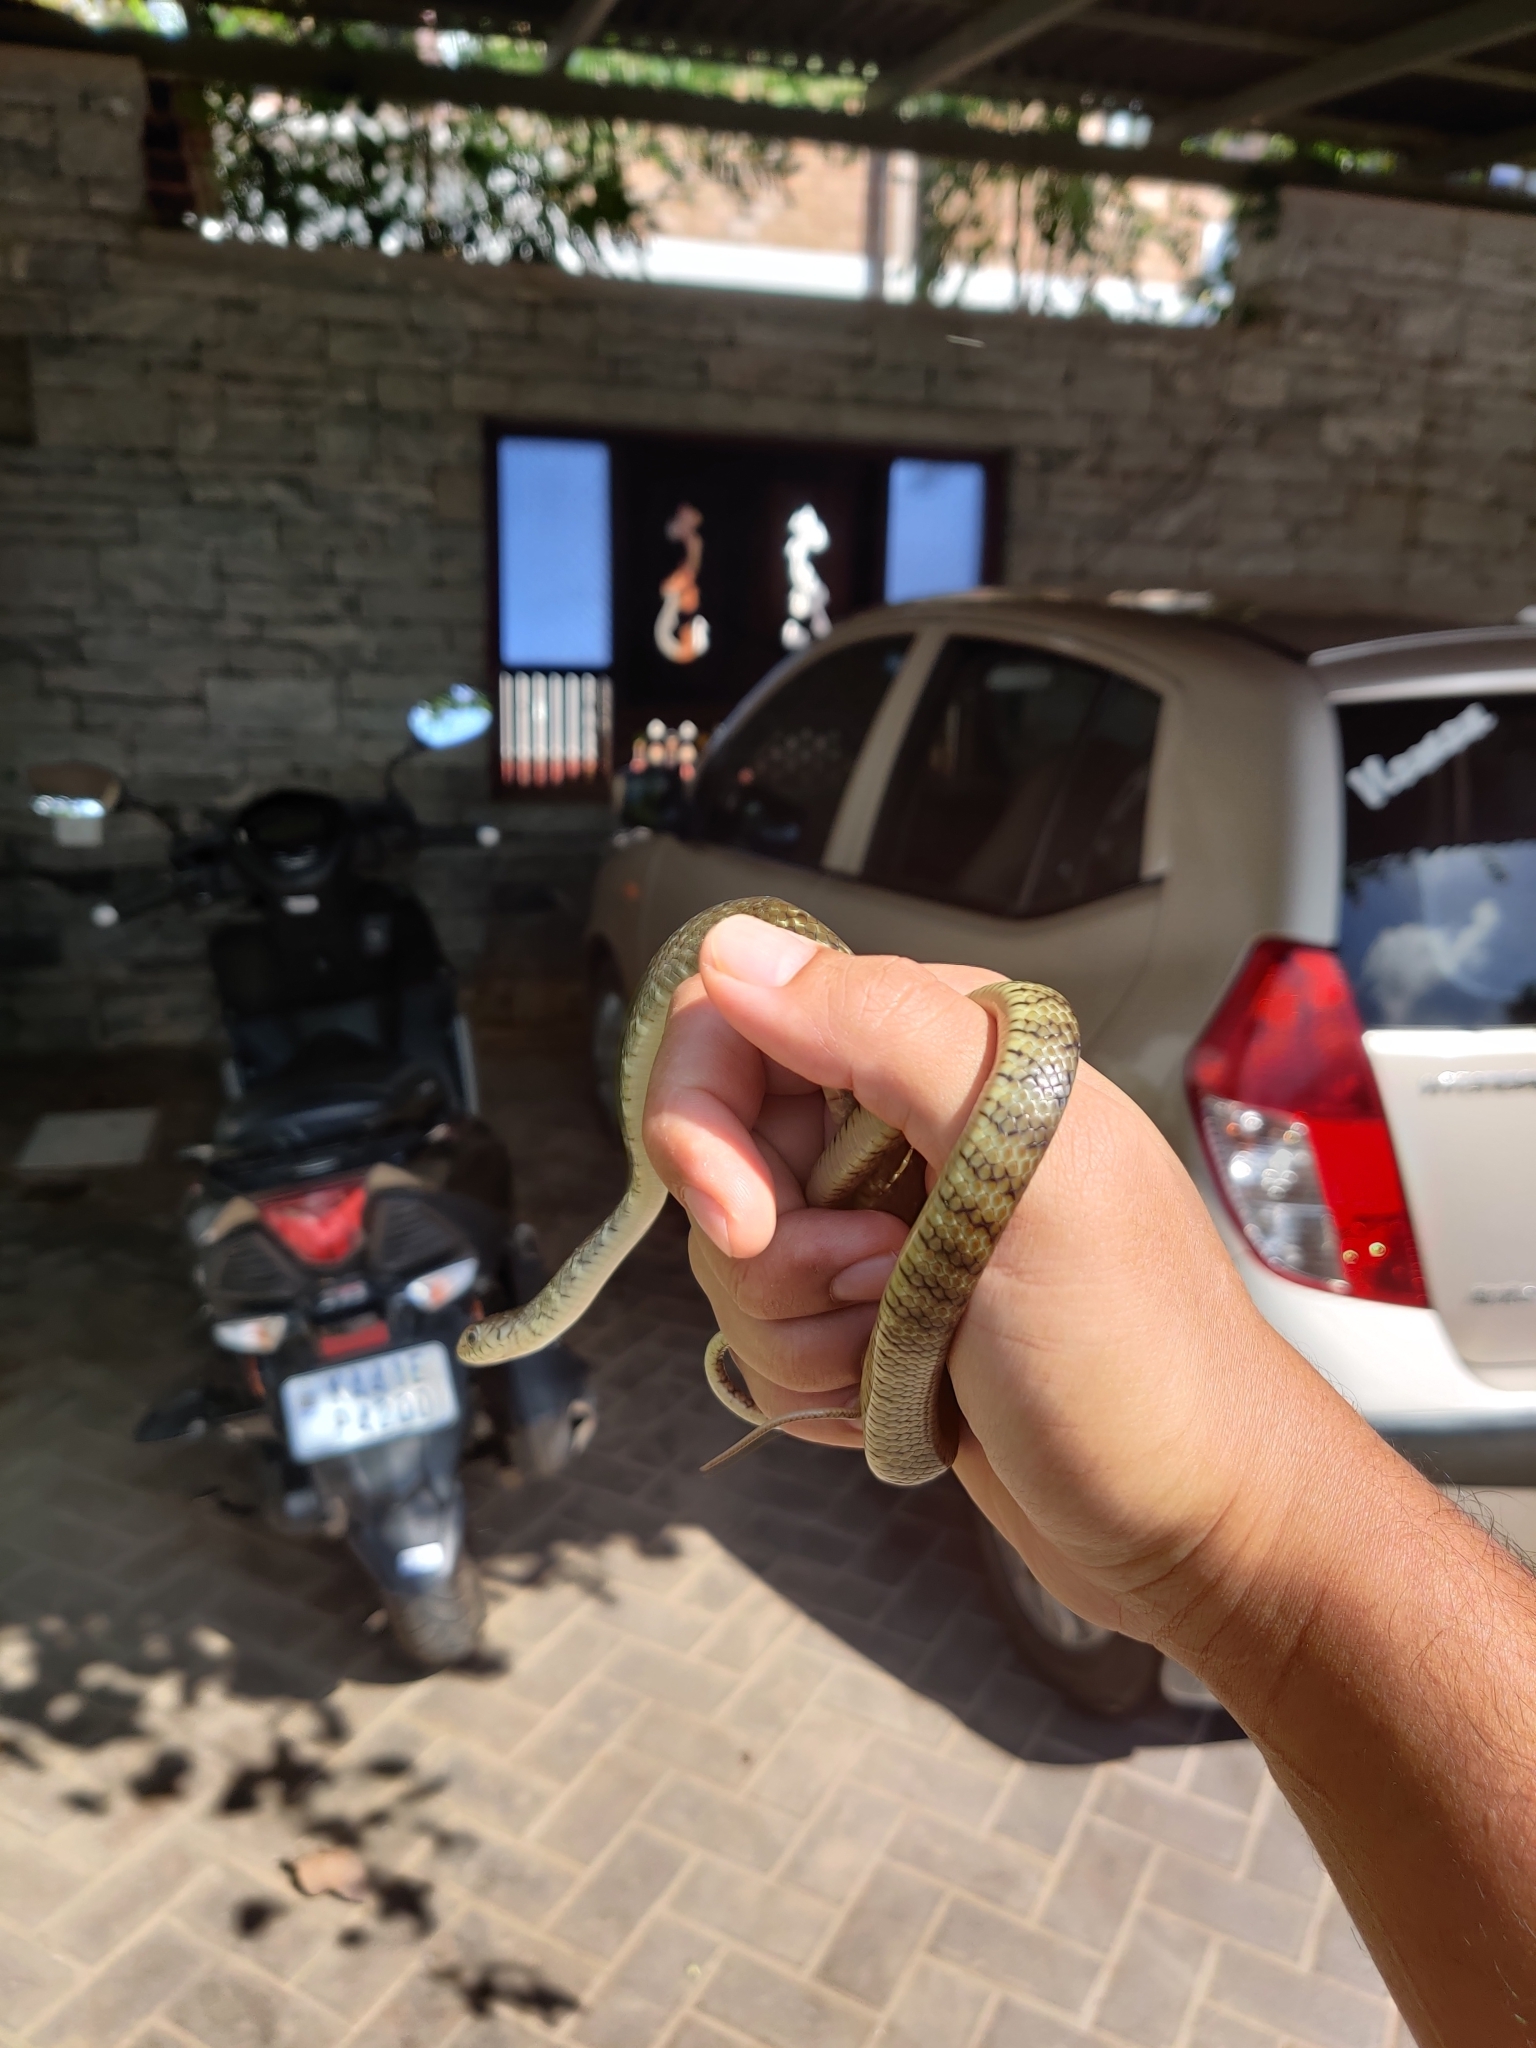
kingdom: Animalia
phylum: Chordata
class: Squamata
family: Colubridae
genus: Ptyas
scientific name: Ptyas mucosa
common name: Oriental ratsnake
